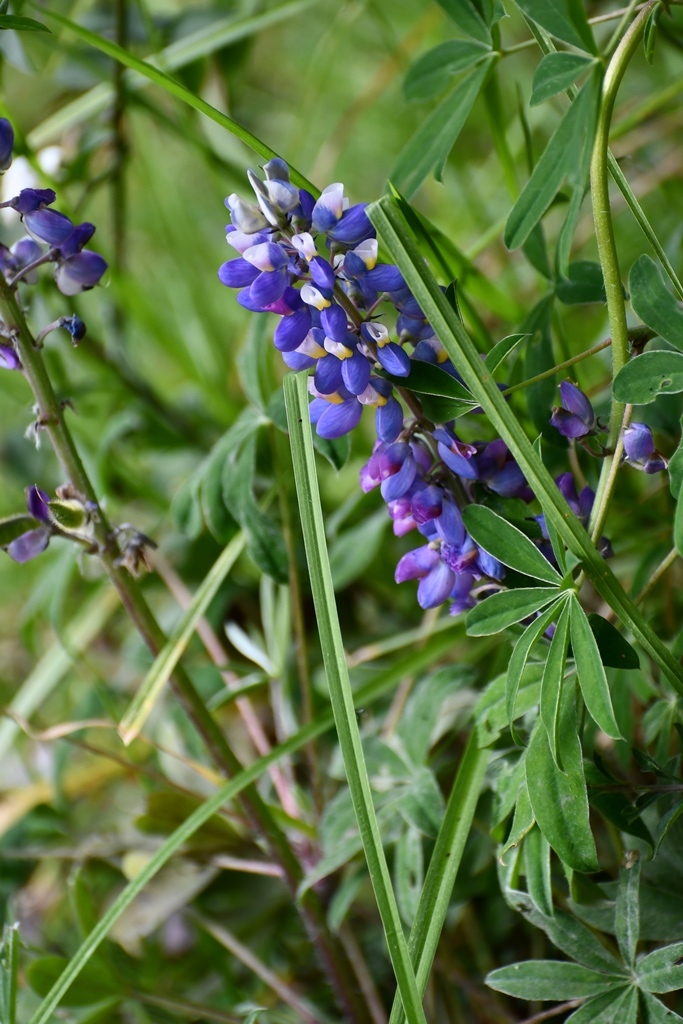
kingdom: Plantae
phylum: Tracheophyta
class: Magnoliopsida
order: Fabales
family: Fabaceae
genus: Lupinus
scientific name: Lupinus aschenbornii
